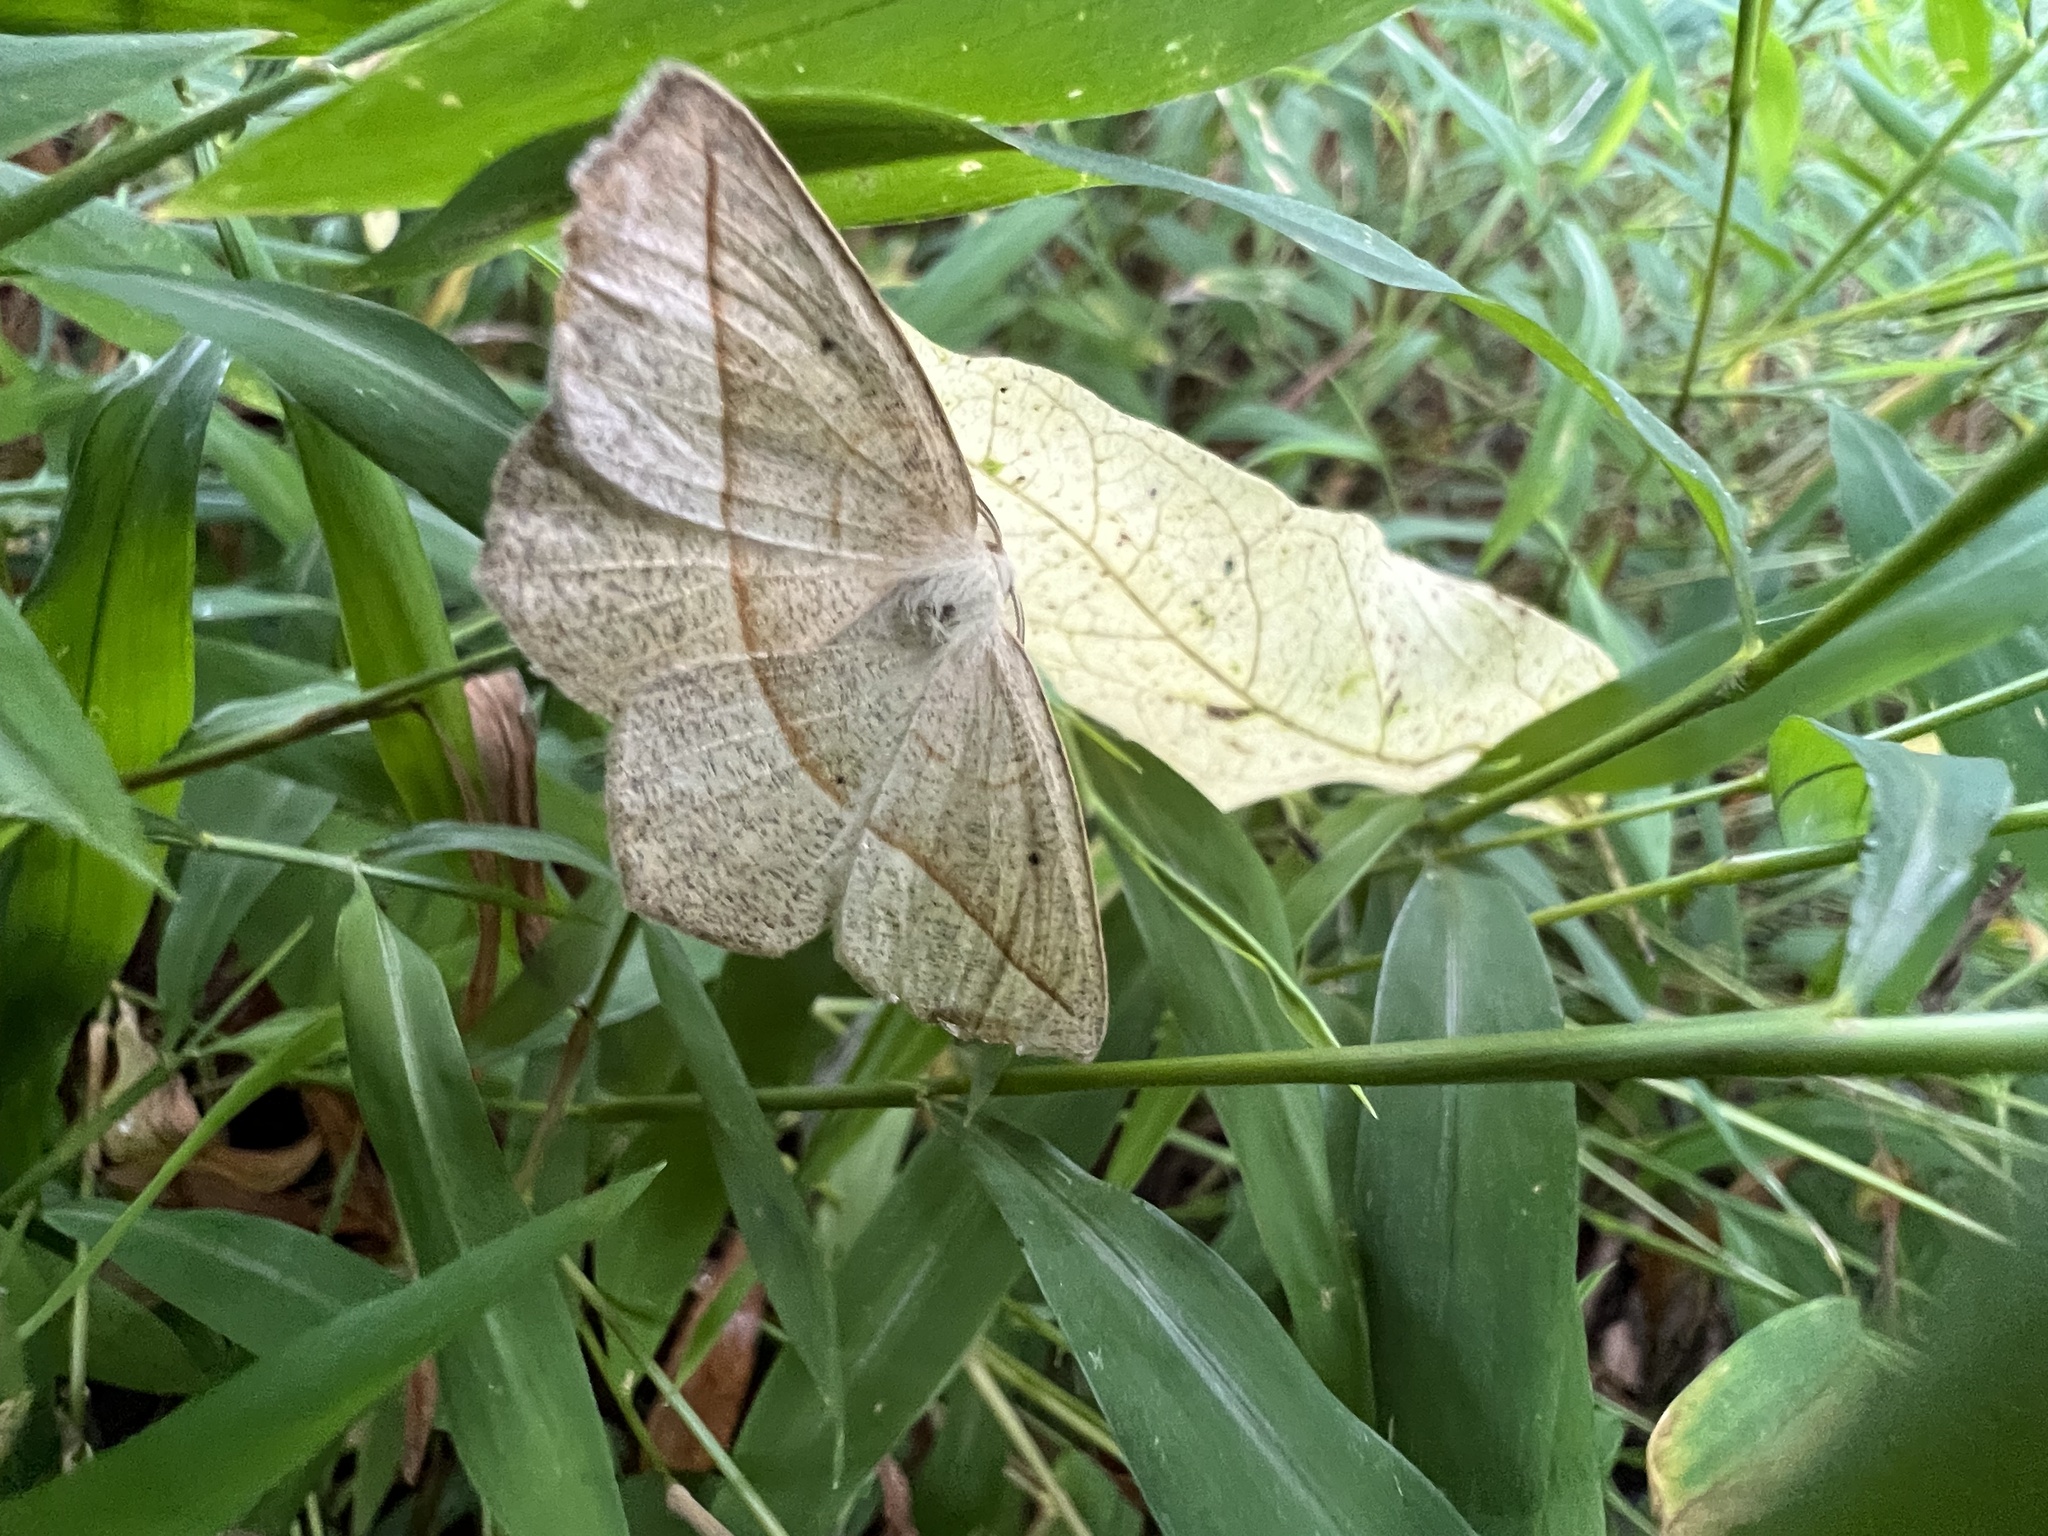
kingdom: Animalia
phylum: Arthropoda
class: Insecta
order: Lepidoptera
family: Geometridae
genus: Eusarca
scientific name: Eusarca confusaria
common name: Confused eusarca
